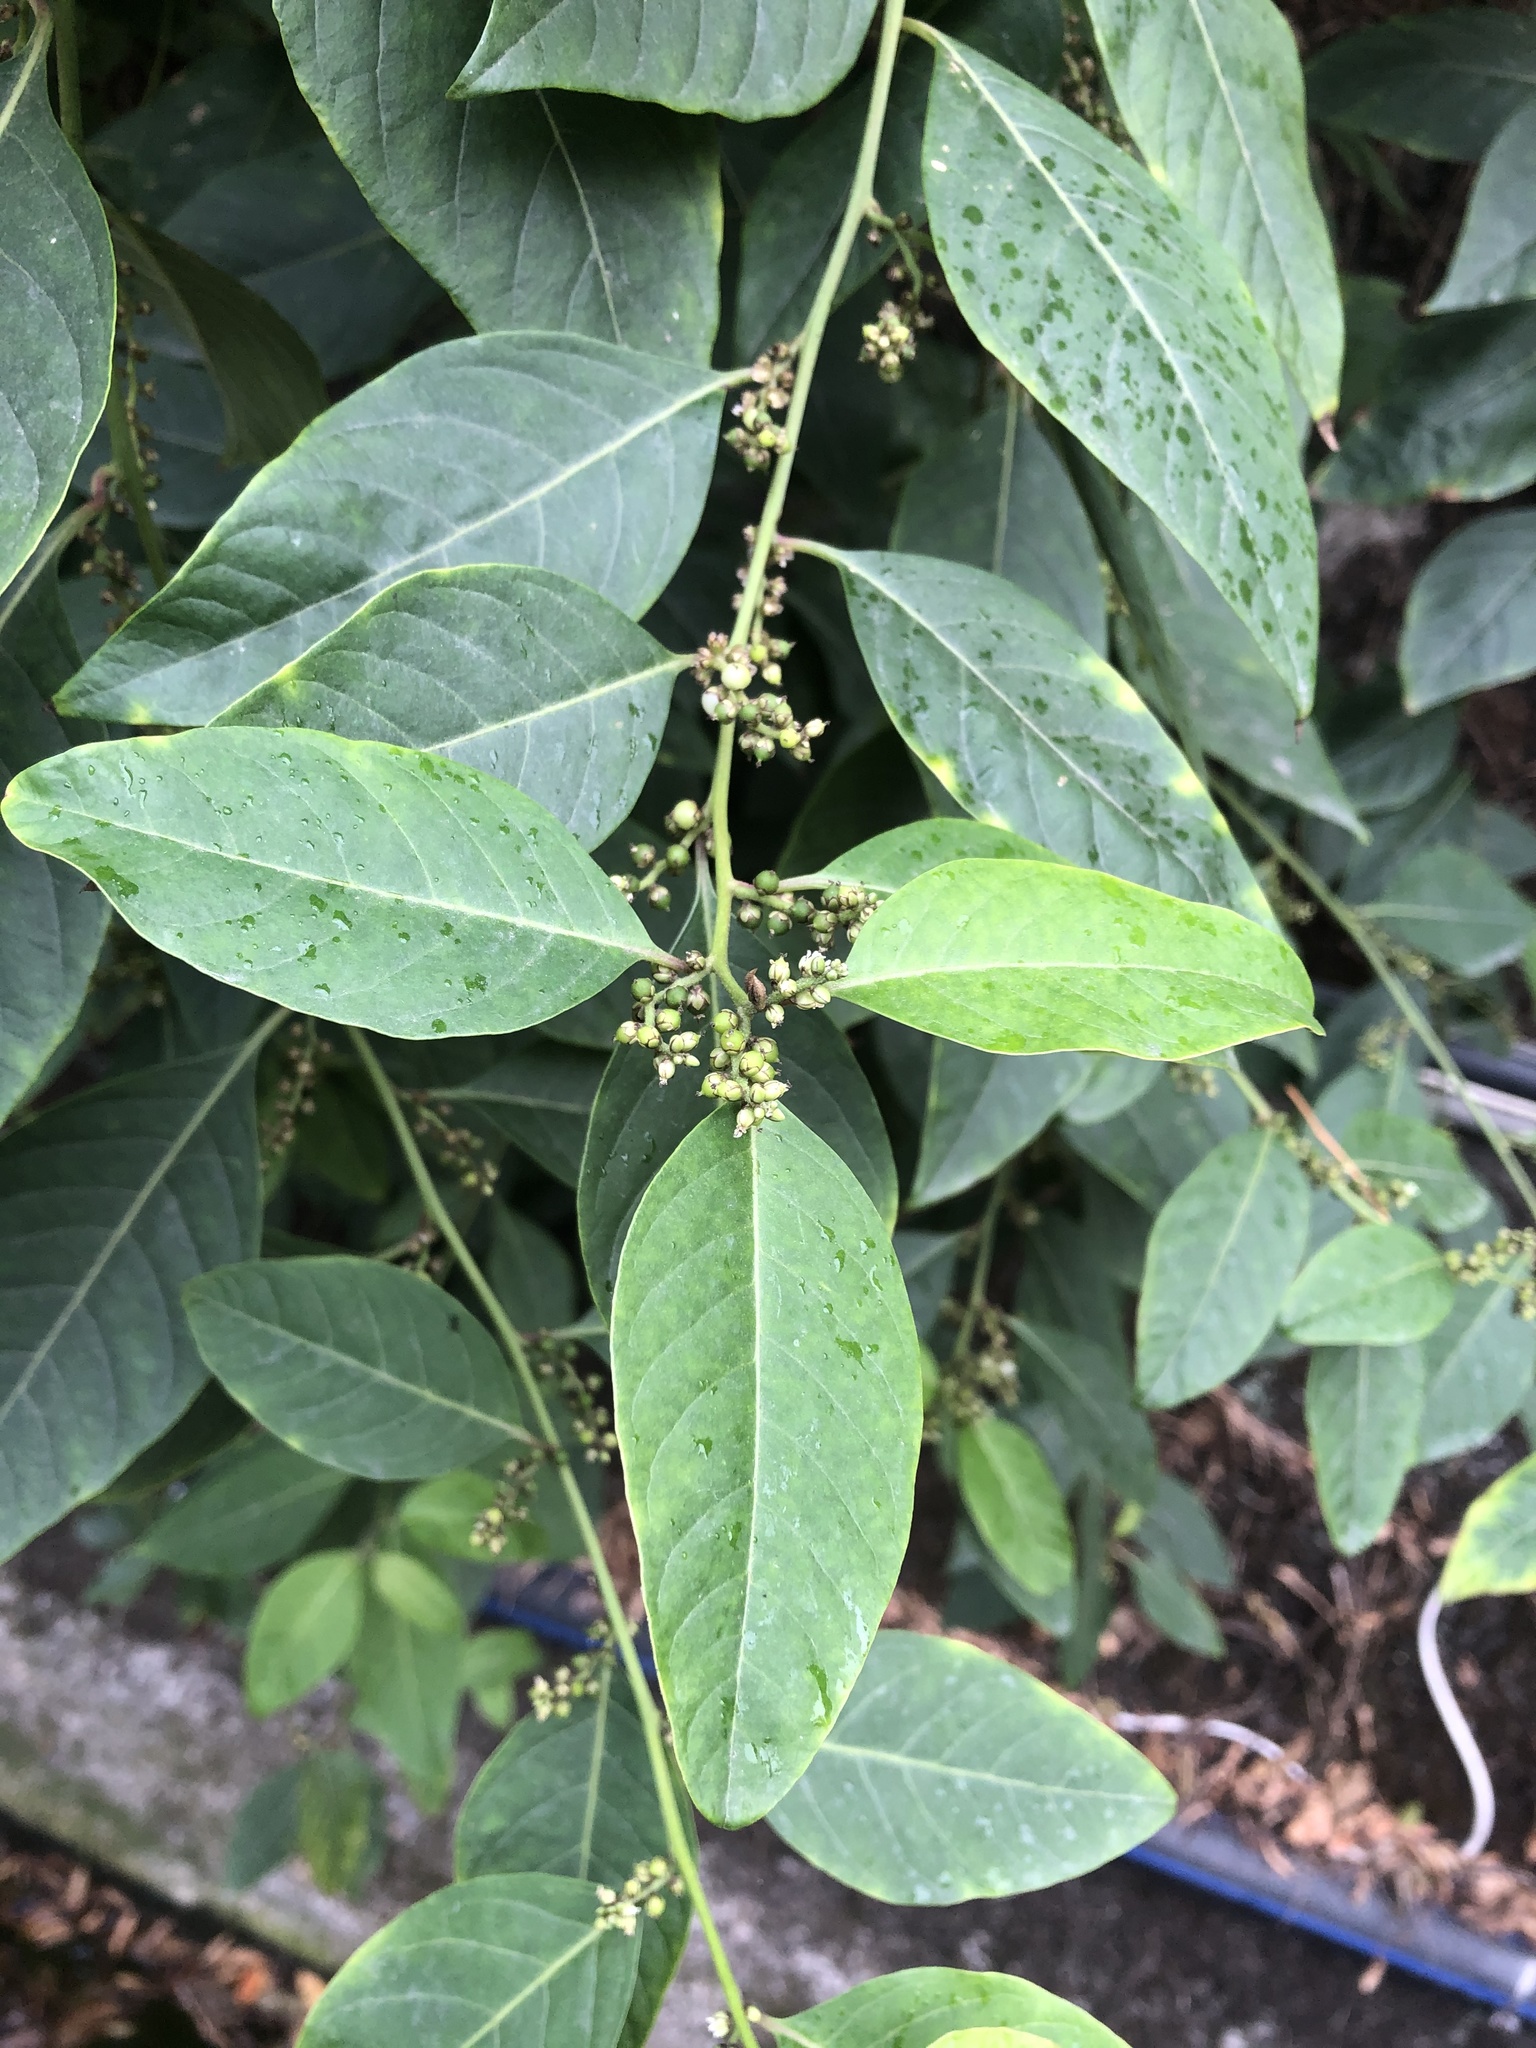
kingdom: Plantae
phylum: Tracheophyta
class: Magnoliopsida
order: Caryophyllales
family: Amaranthaceae
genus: Deeringia
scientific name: Deeringia polysperma
